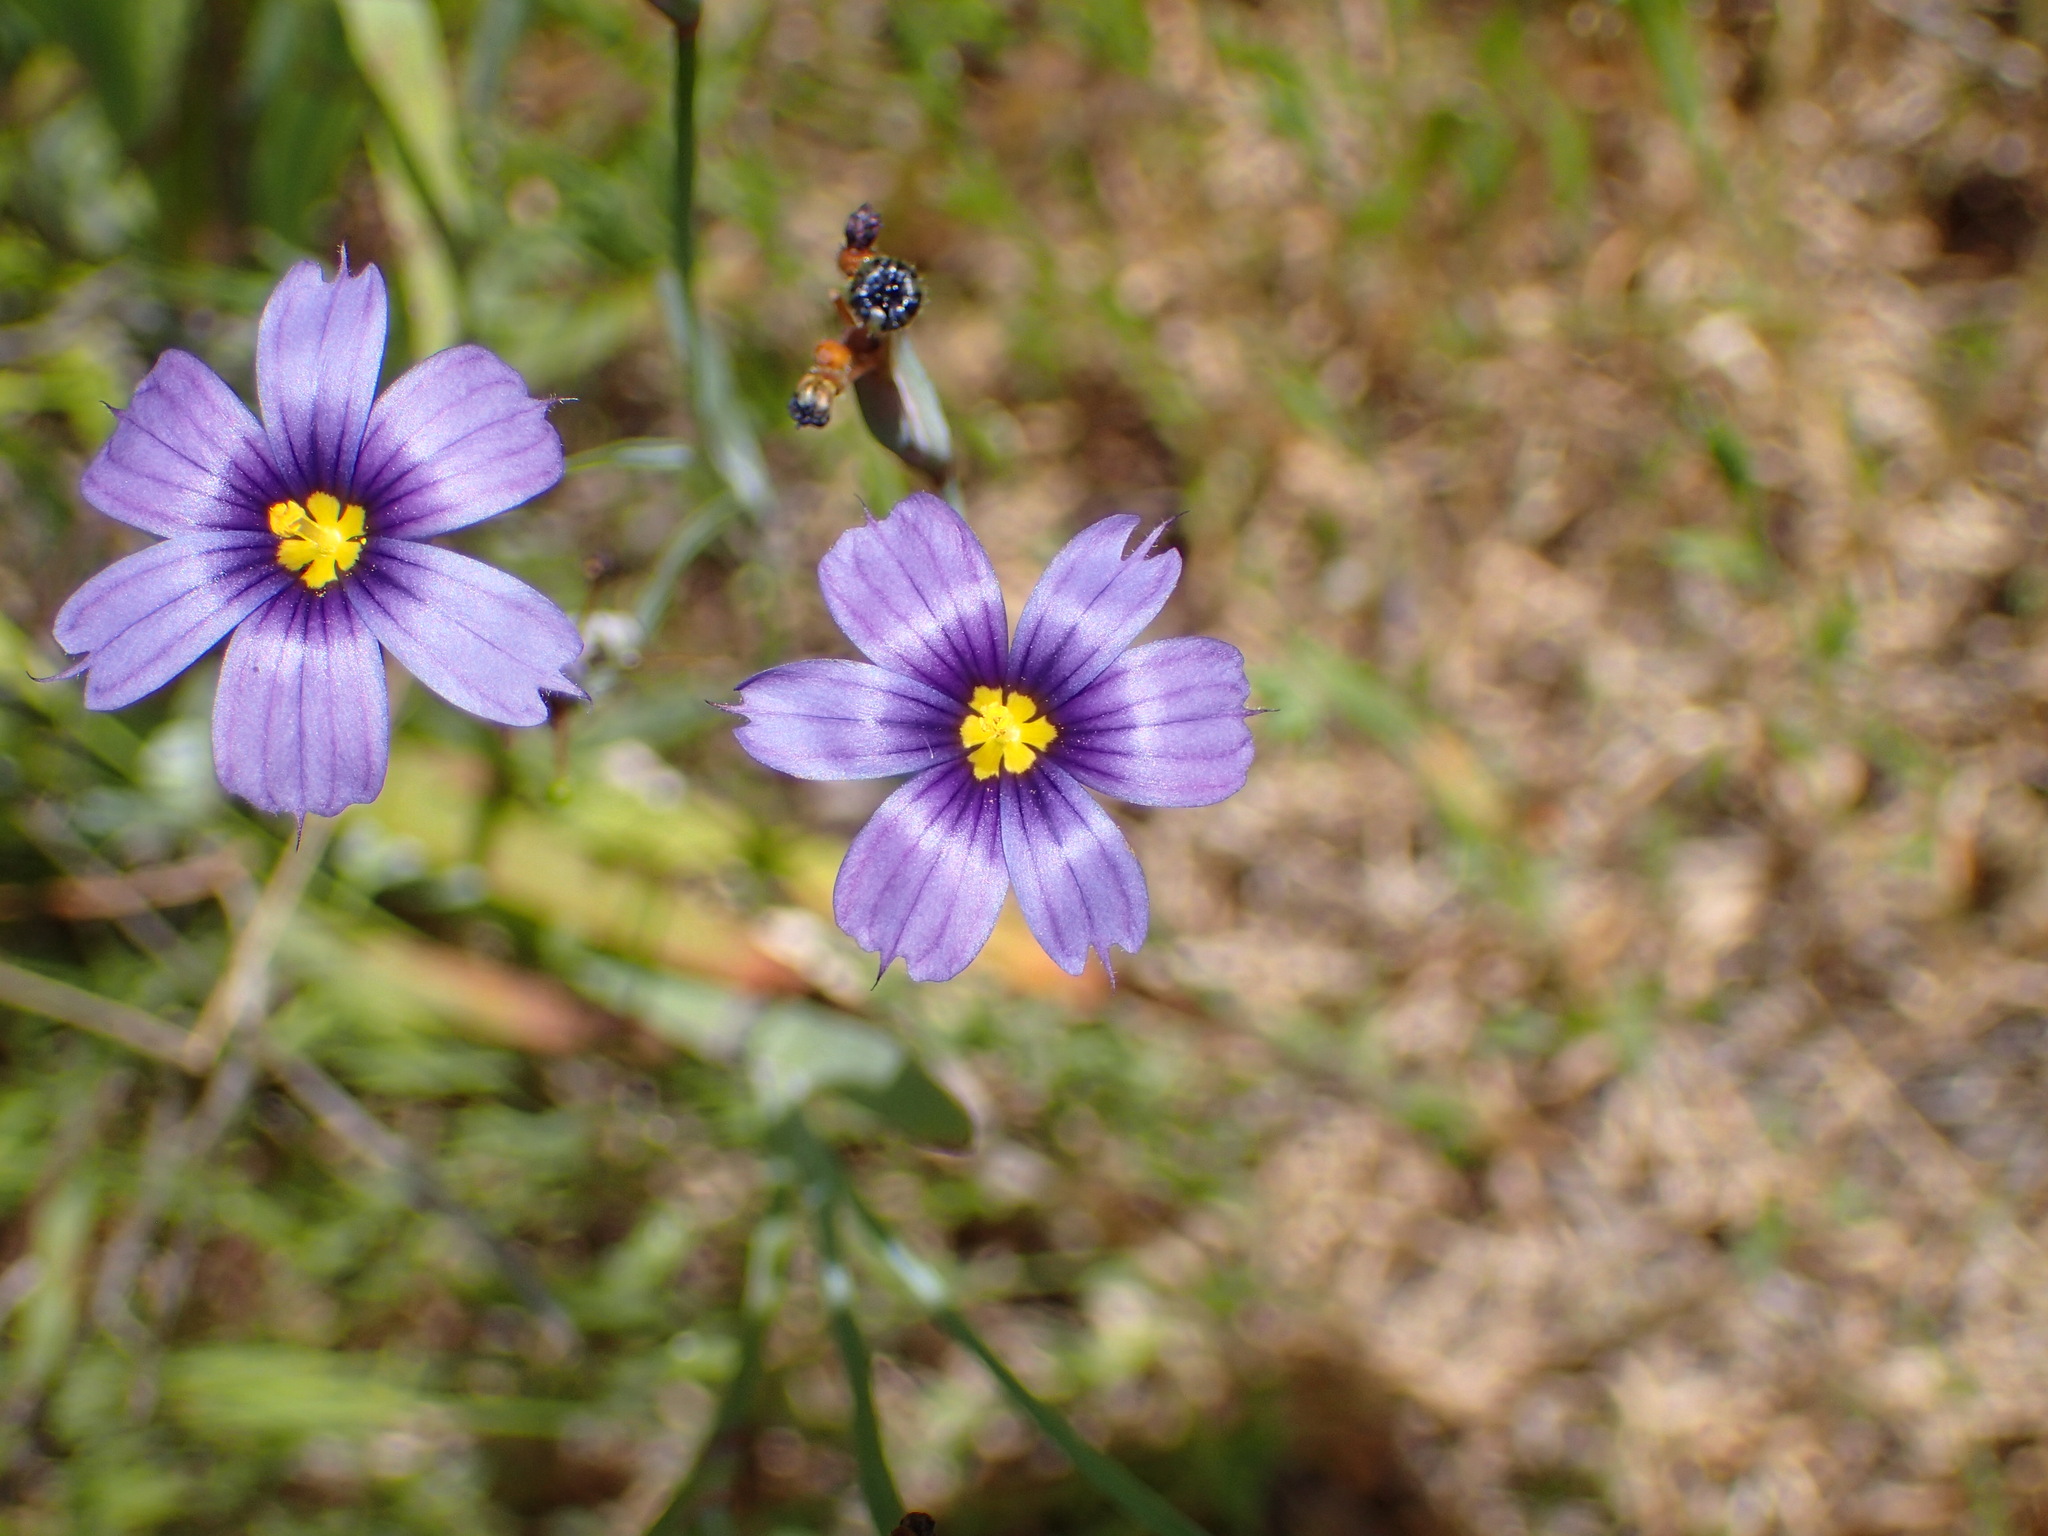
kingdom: Plantae
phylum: Tracheophyta
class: Liliopsida
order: Asparagales
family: Iridaceae
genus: Sisyrinchium
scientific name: Sisyrinchium bellum
